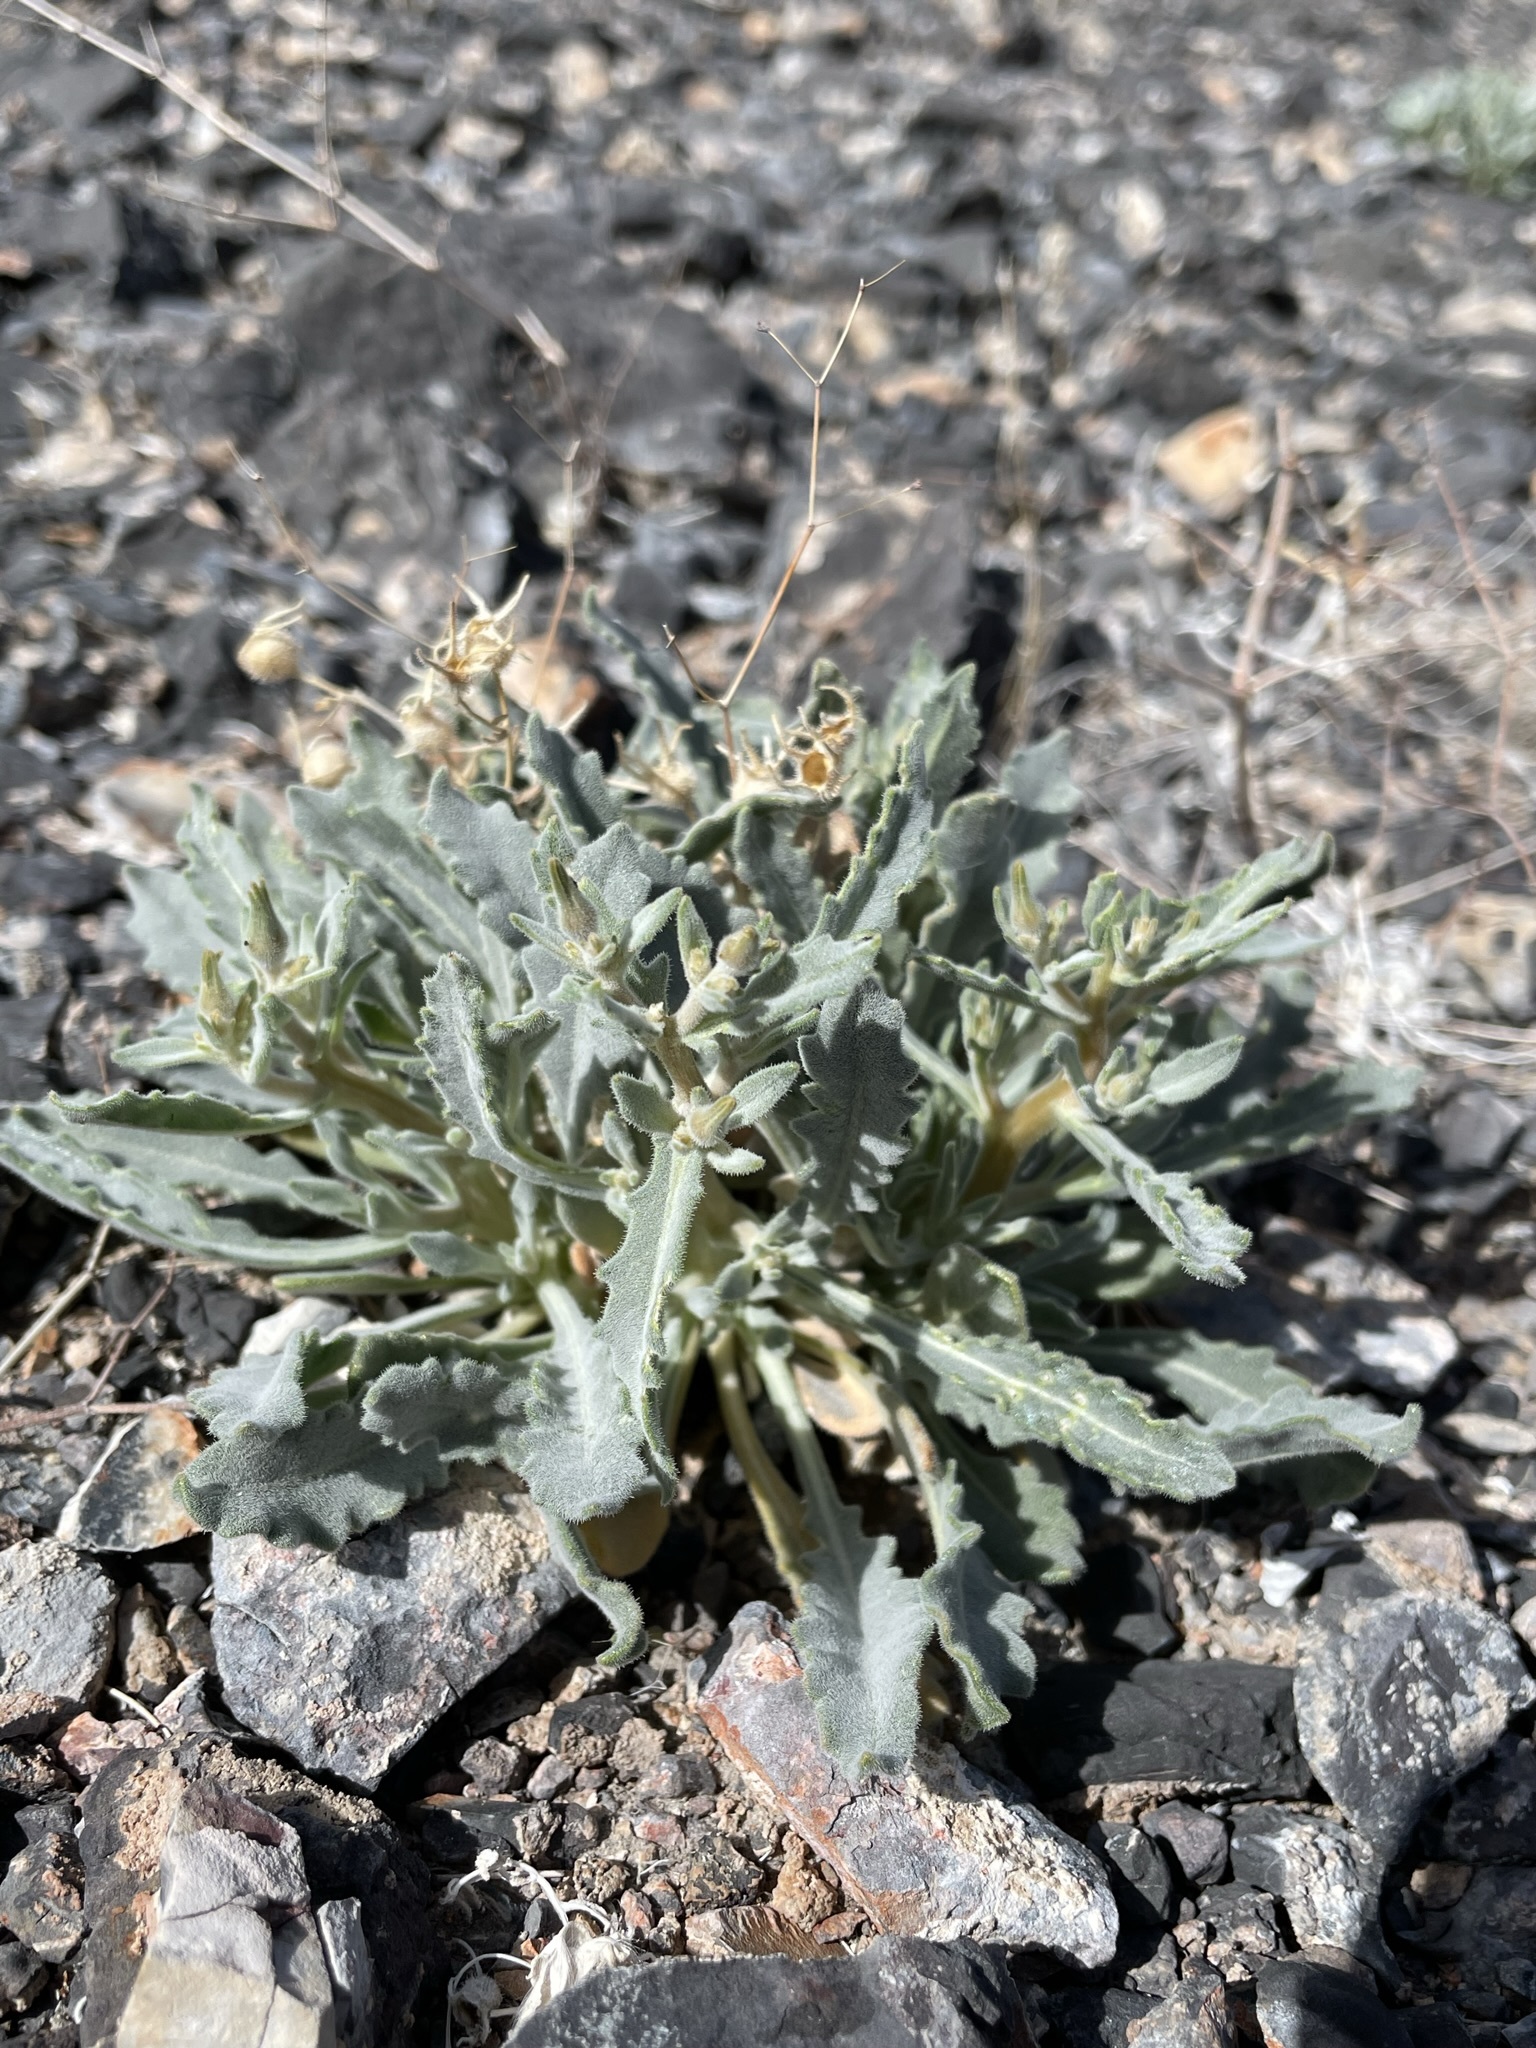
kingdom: Plantae
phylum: Tracheophyta
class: Magnoliopsida
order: Cornales
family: Loasaceae
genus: Mentzelia
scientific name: Mentzelia oreophila
